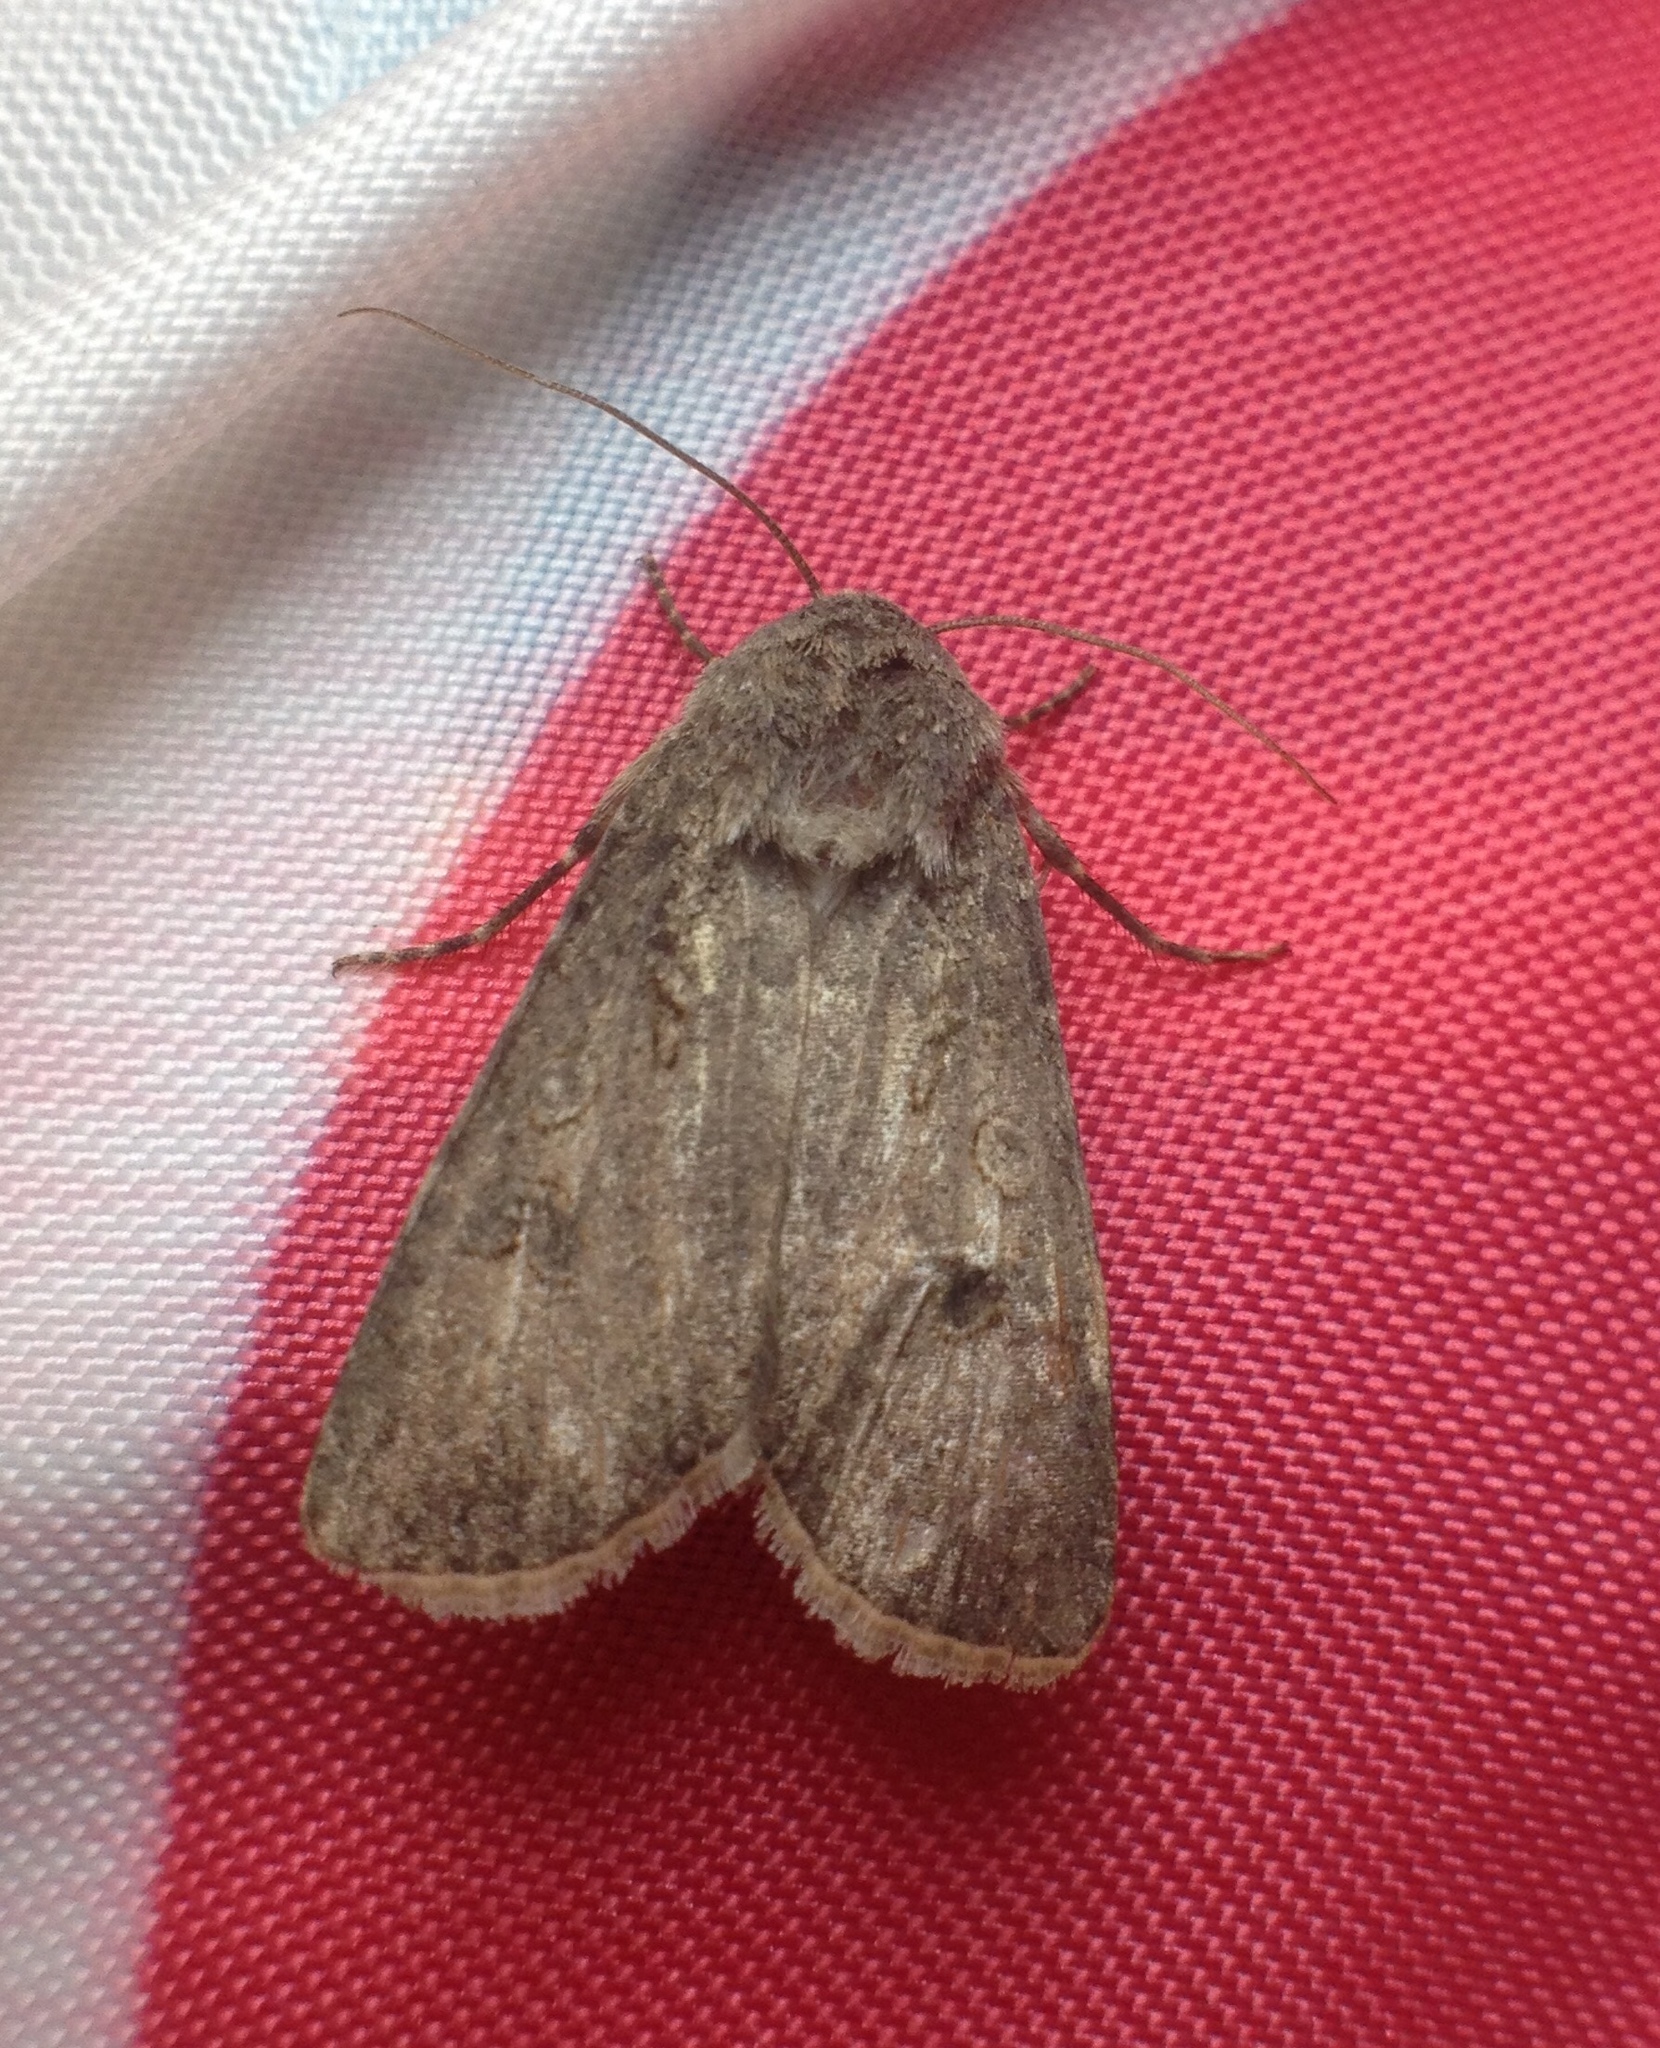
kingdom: Animalia
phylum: Arthropoda
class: Insecta
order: Lepidoptera
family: Noctuidae
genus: Agrotis
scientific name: Agrotis segetum
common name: Turnip moth
